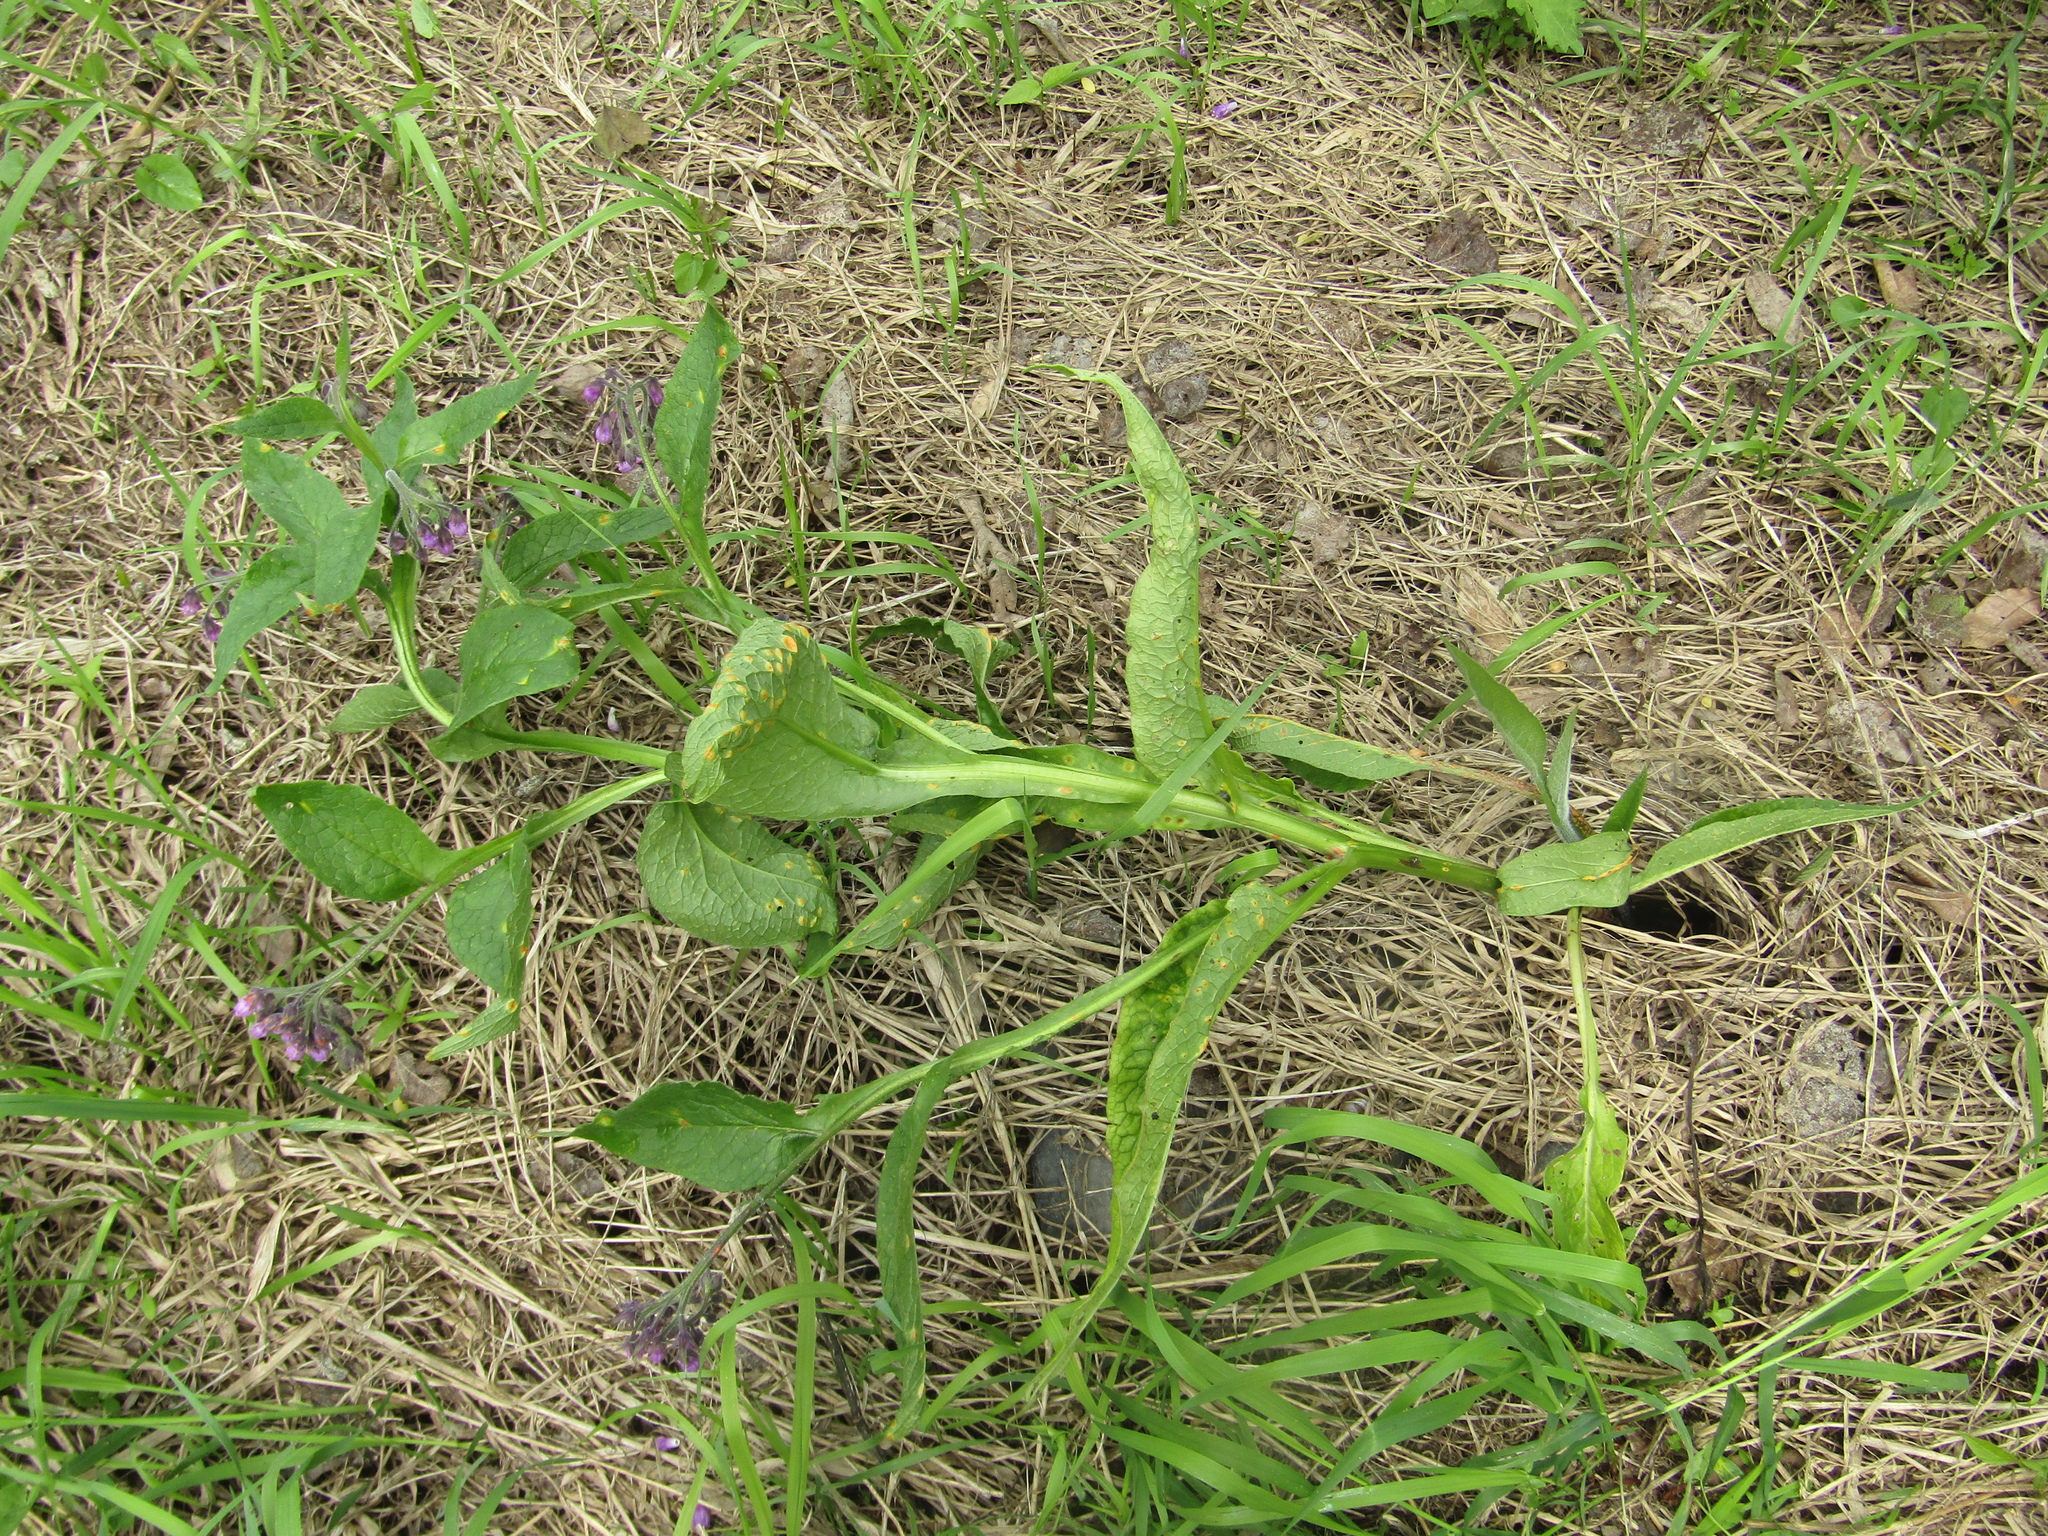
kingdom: Fungi
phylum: Basidiomycota
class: Pucciniomycetes
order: Pucciniales
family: Pucciniaceae
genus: Puccinia
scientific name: Puccinia bromina
